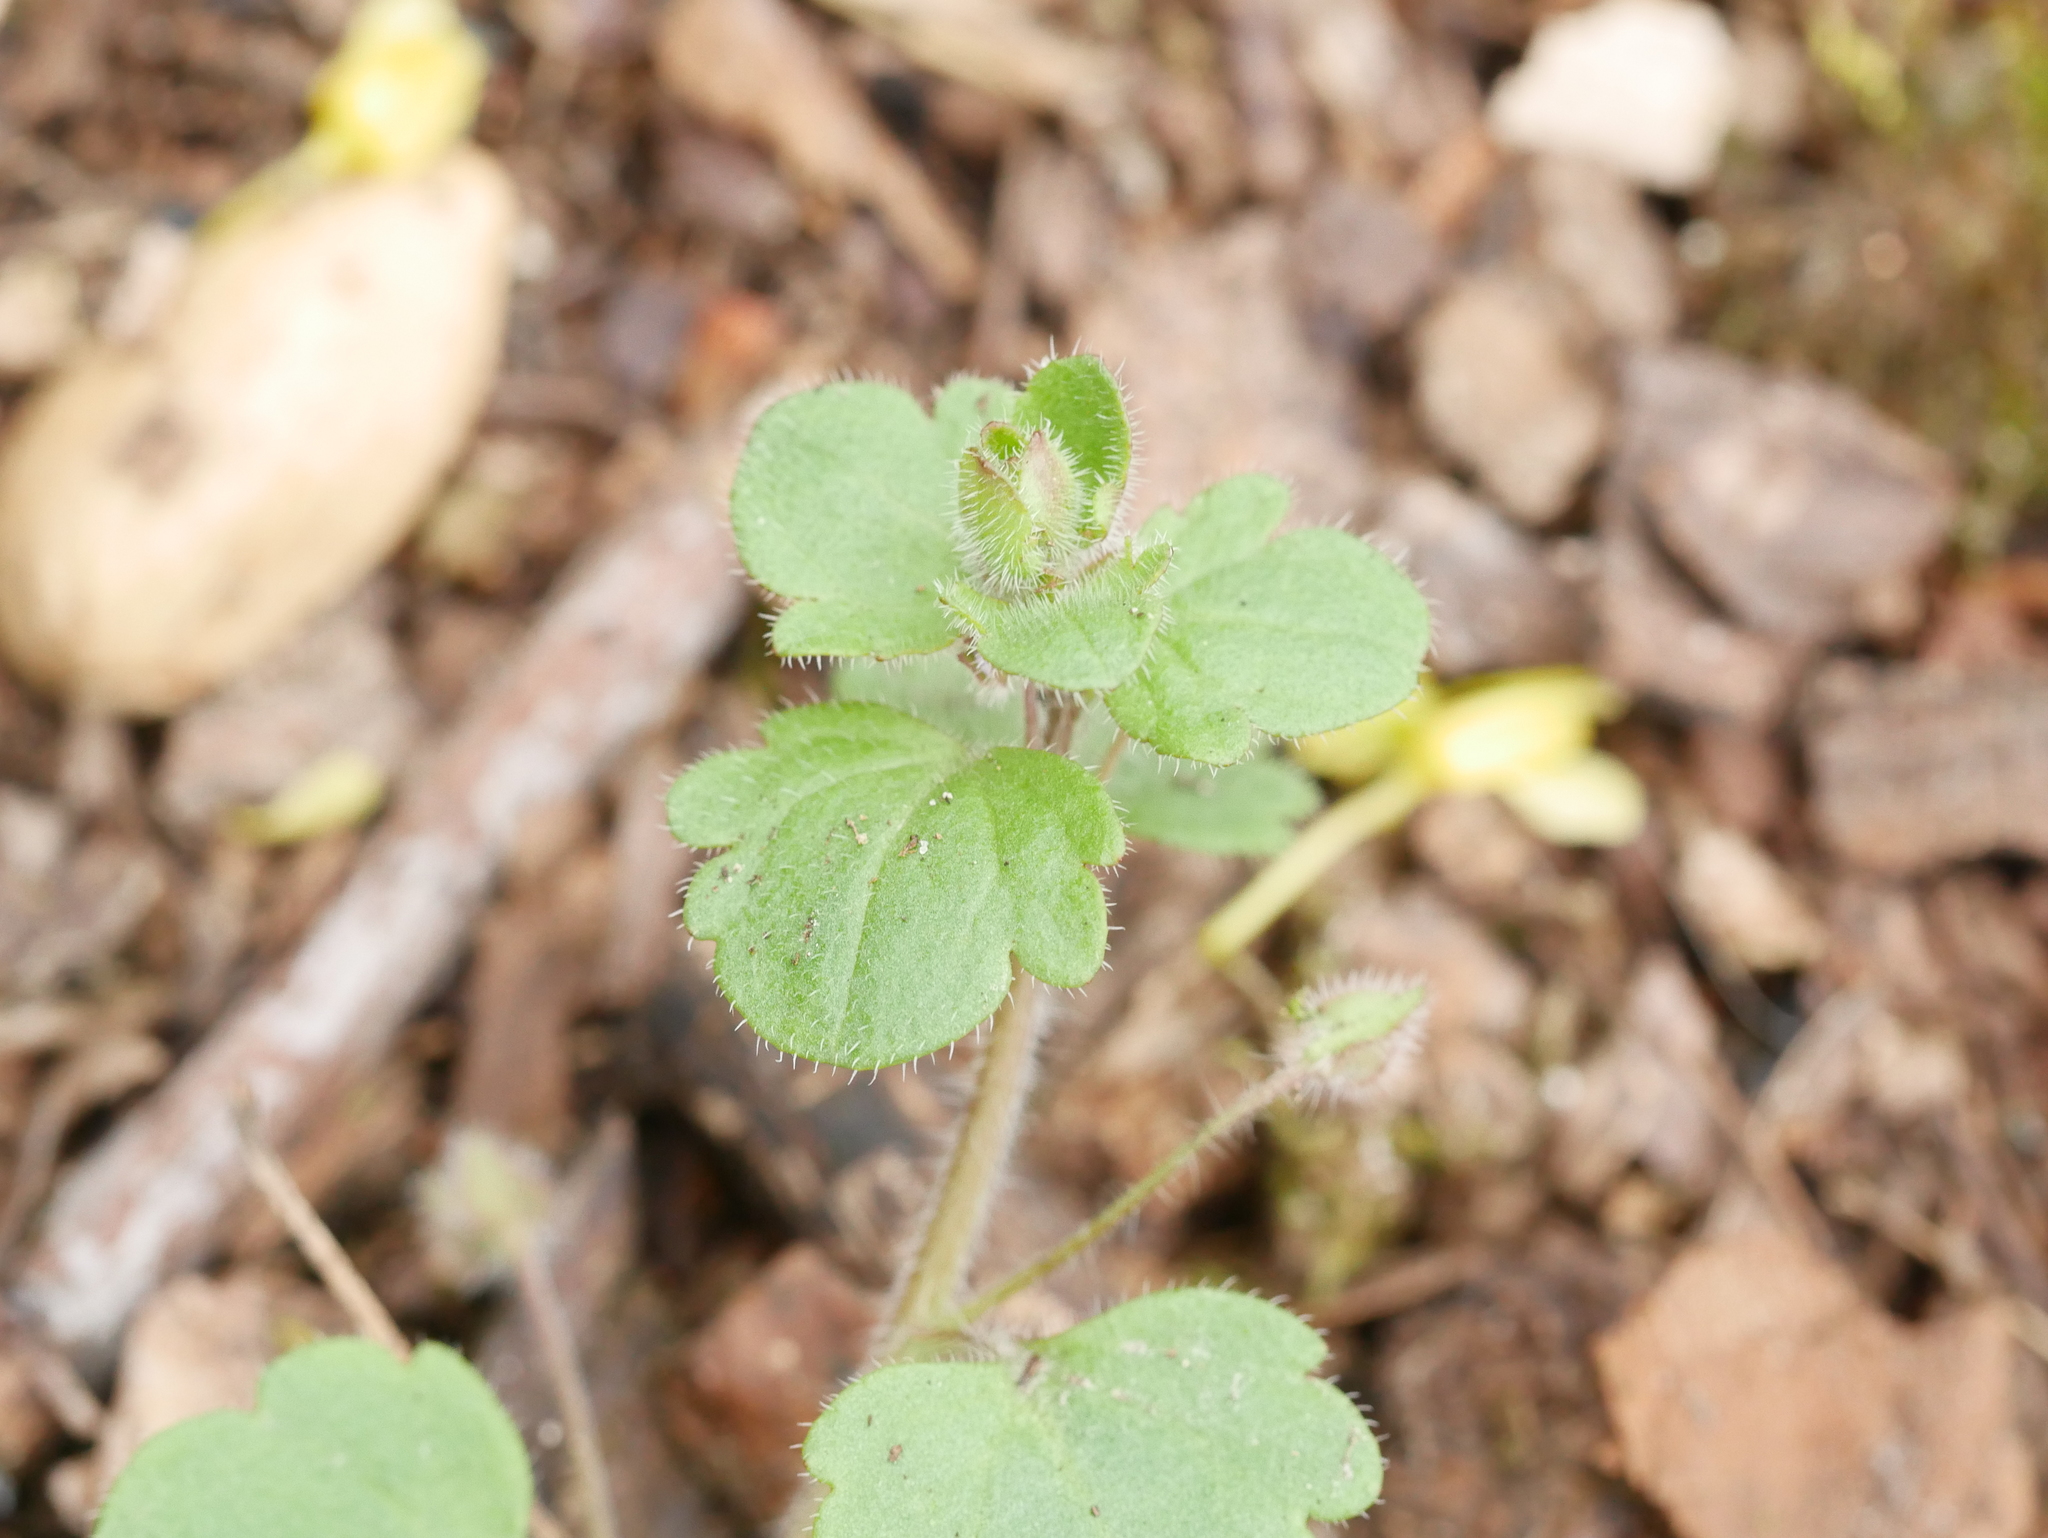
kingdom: Plantae
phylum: Tracheophyta
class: Magnoliopsida
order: Lamiales
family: Plantaginaceae
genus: Veronica
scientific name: Veronica sublobata
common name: False ivy-leaved speedwell
